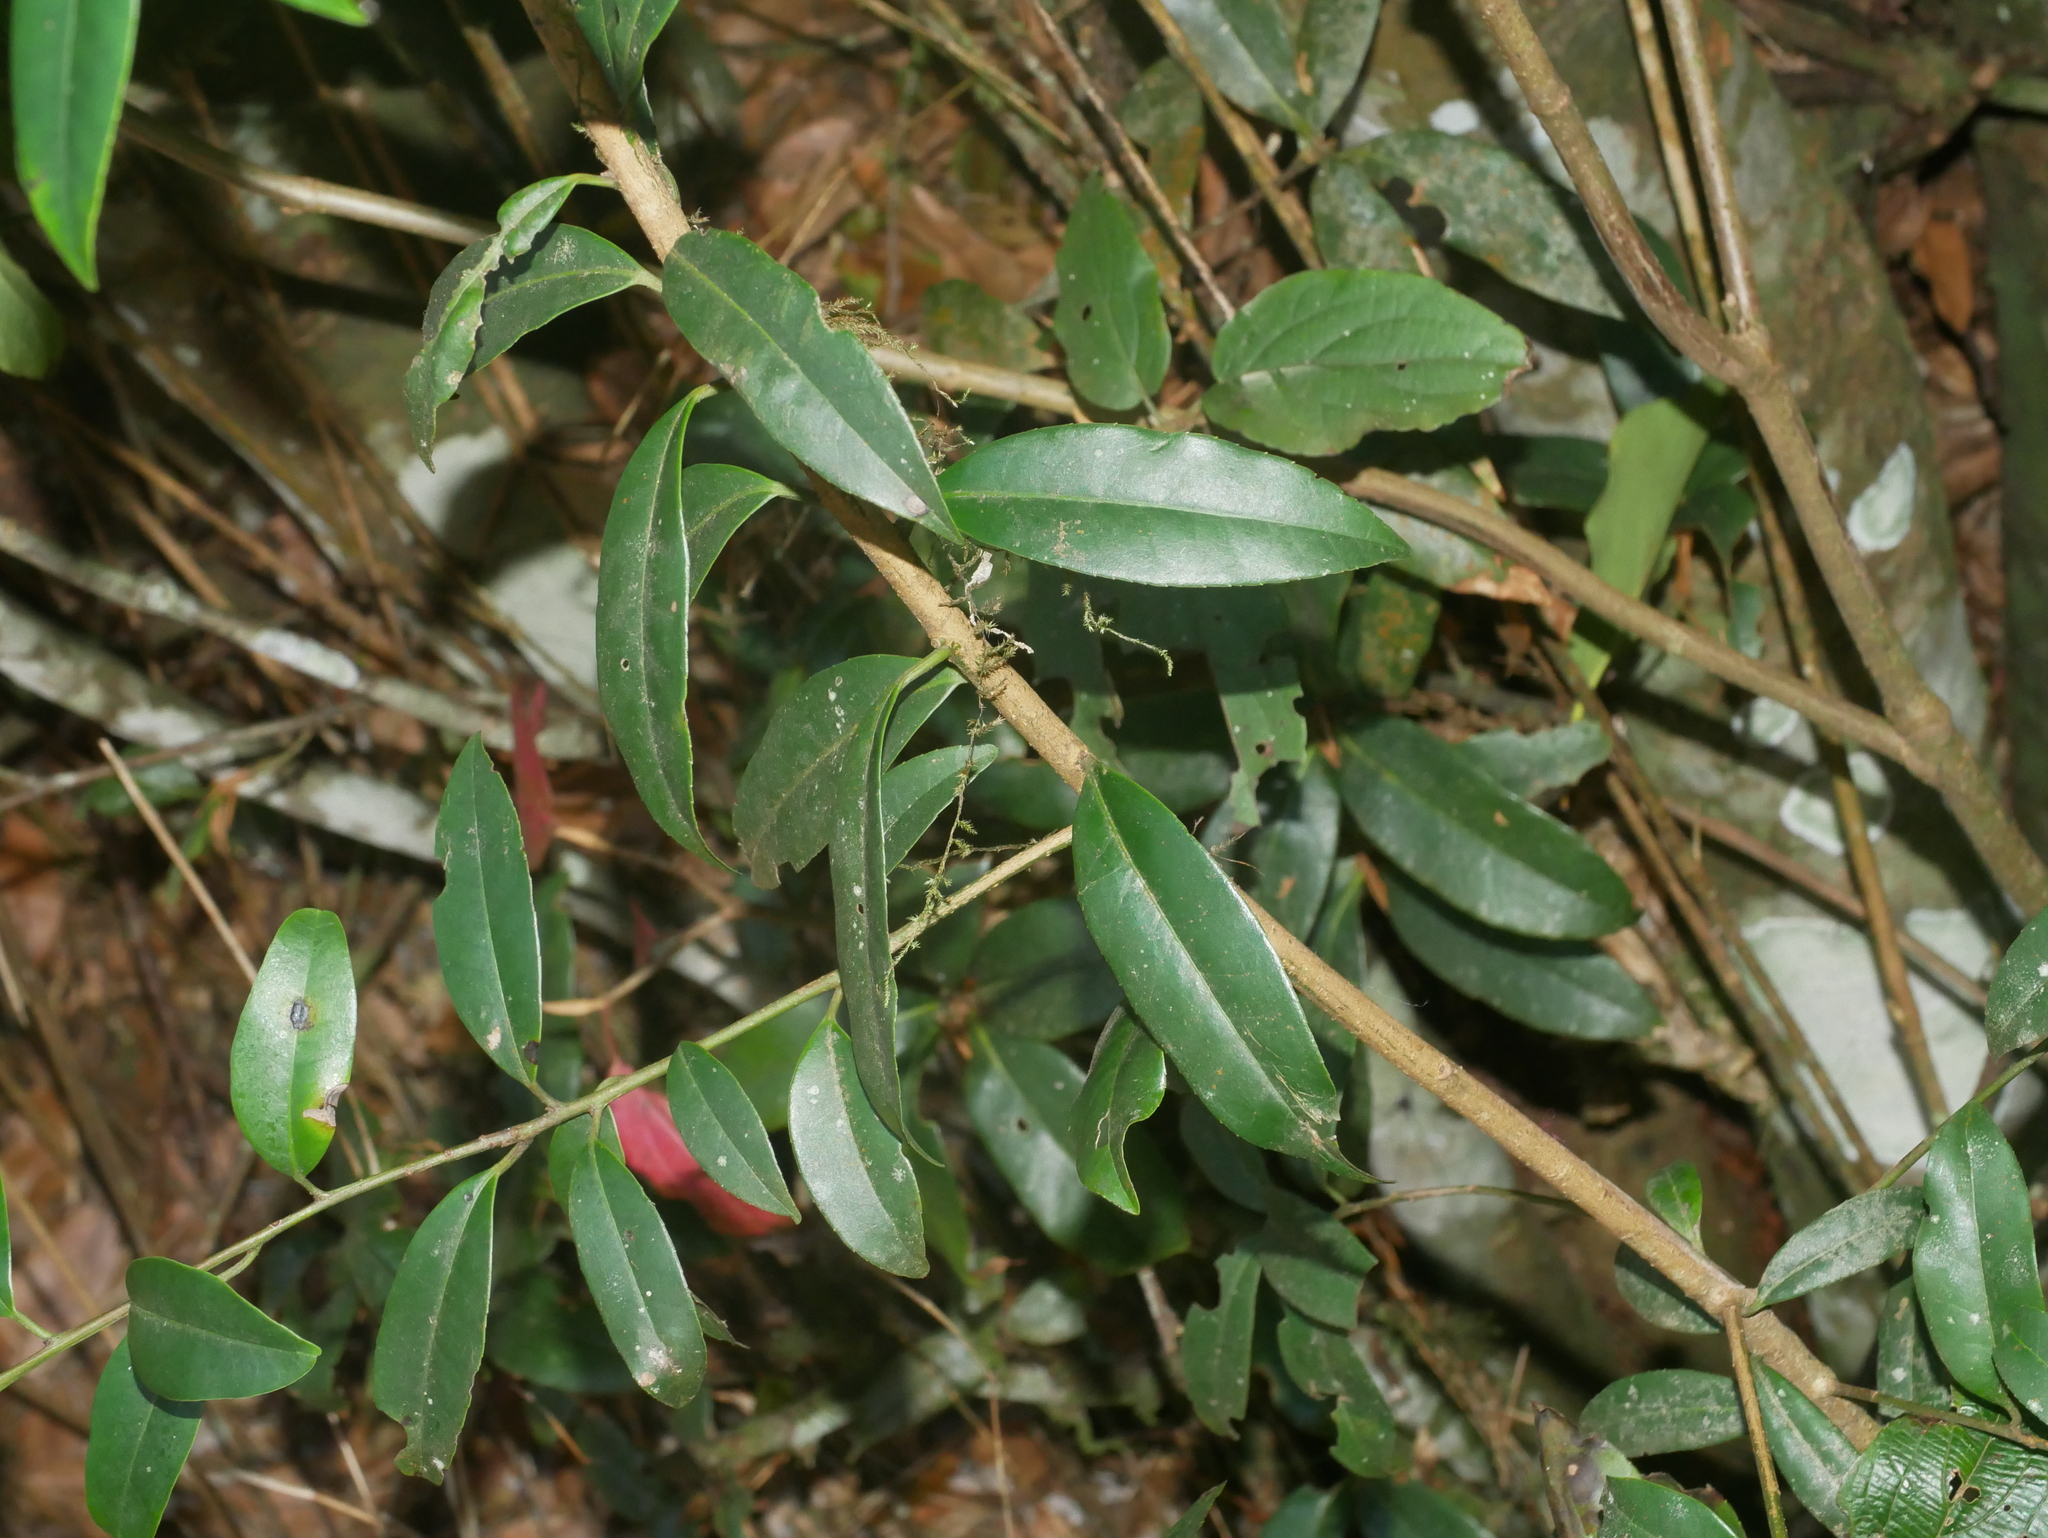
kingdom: Plantae
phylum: Tracheophyta
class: Magnoliopsida
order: Aquifoliales
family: Aquifoliaceae
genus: Ilex
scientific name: Ilex lonicerifolia
